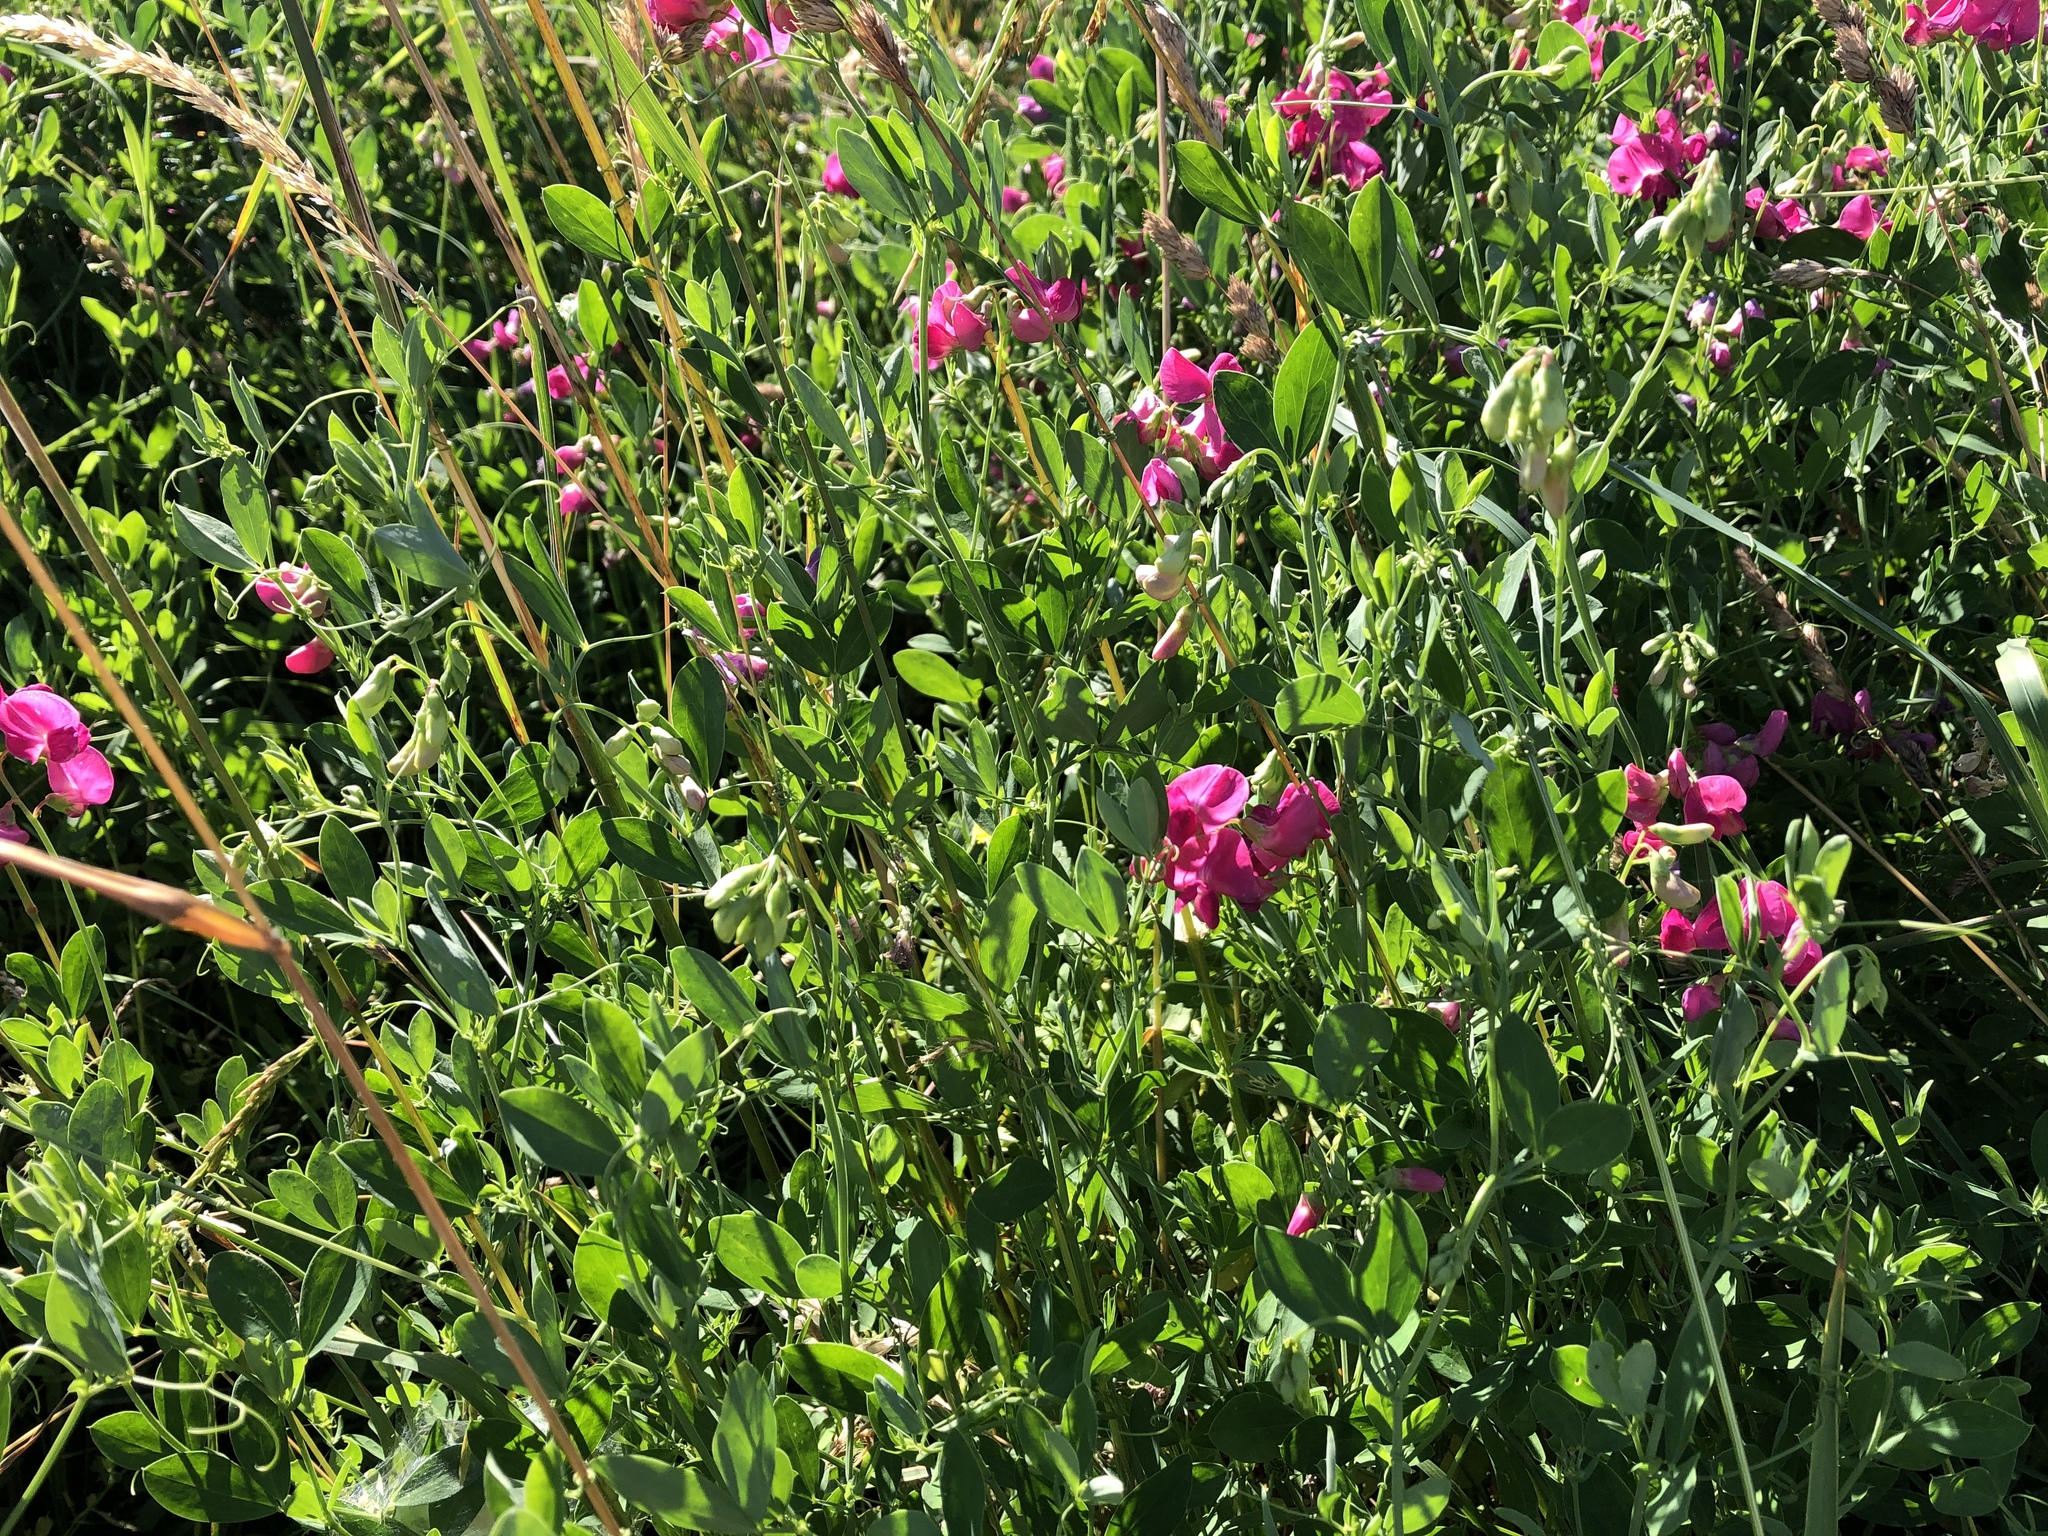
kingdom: Plantae
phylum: Tracheophyta
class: Magnoliopsida
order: Fabales
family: Fabaceae
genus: Lathyrus
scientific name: Lathyrus tuberosus
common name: Tuberous pea
